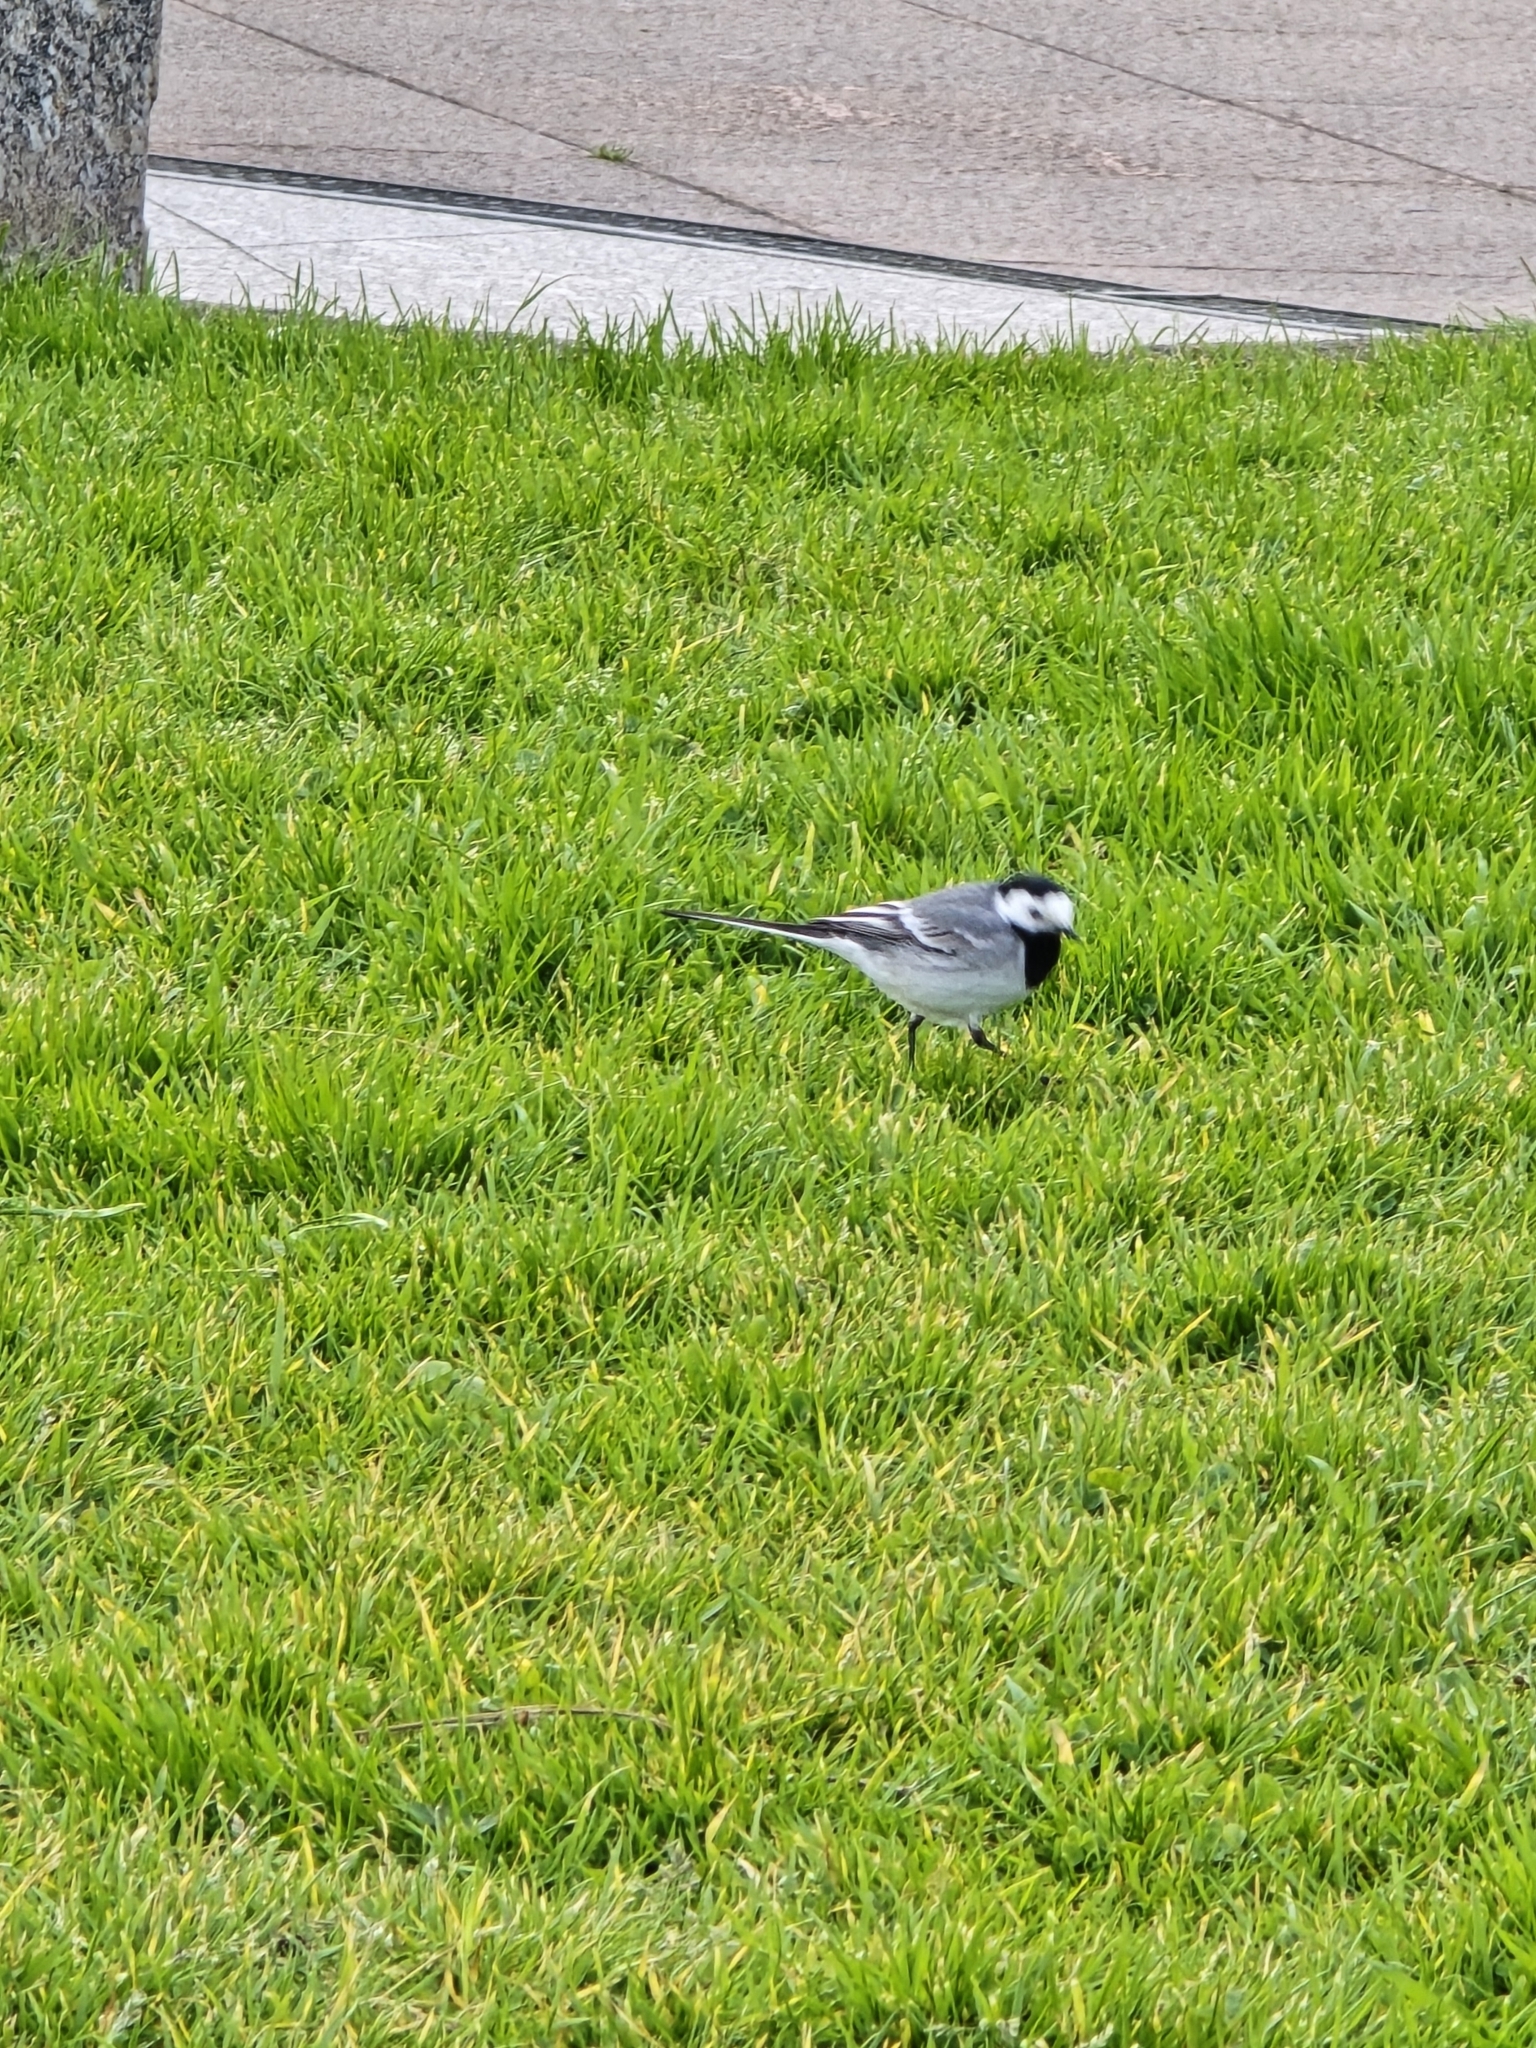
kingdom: Animalia
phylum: Chordata
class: Aves
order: Passeriformes
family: Motacillidae
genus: Motacilla
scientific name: Motacilla alba
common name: White wagtail
